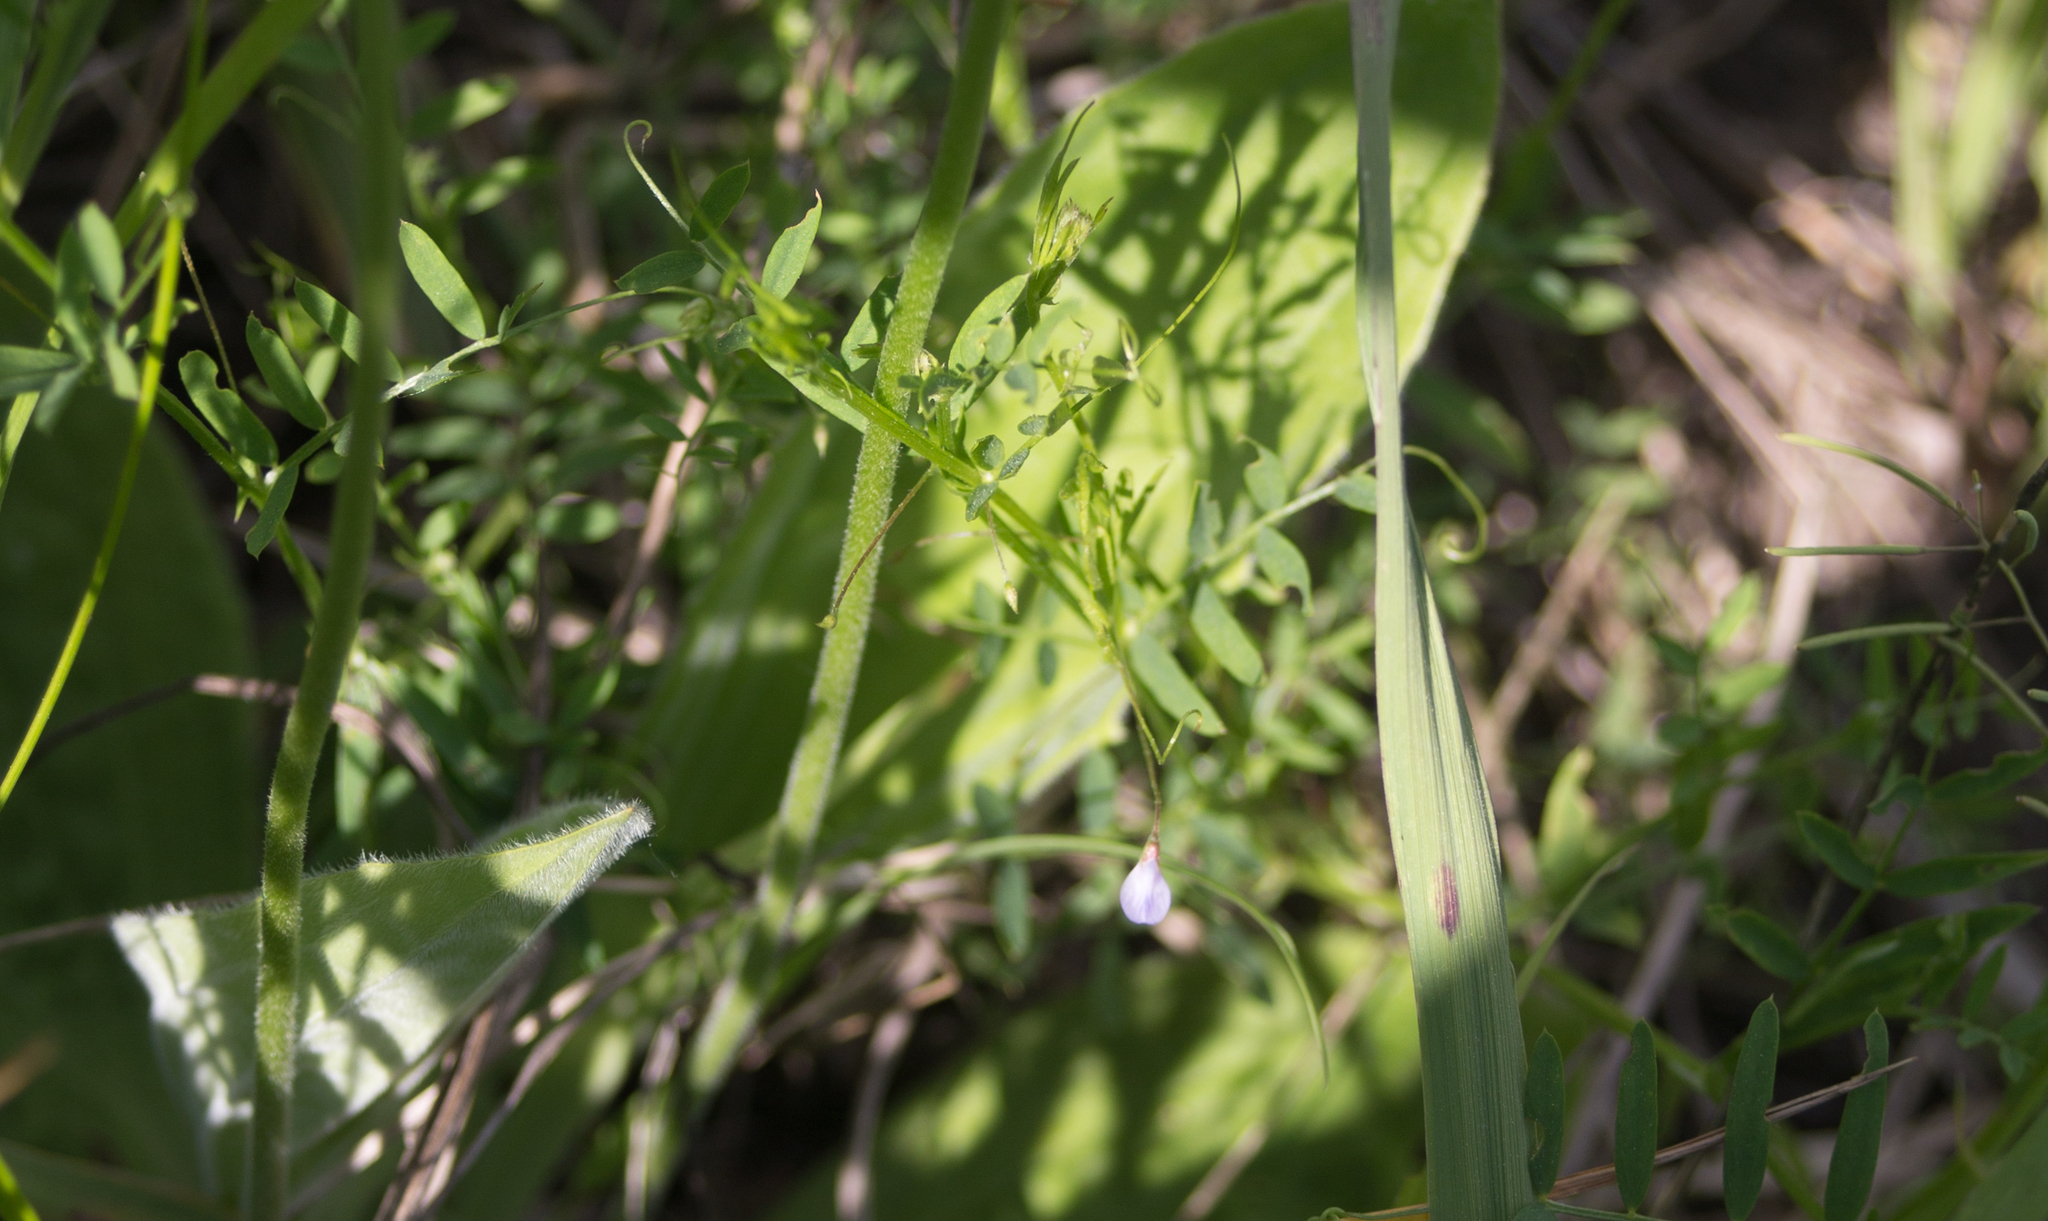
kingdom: Plantae
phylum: Tracheophyta
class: Magnoliopsida
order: Fabales
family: Fabaceae
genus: Vicia
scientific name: Vicia tetrasperma
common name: Smooth tare
